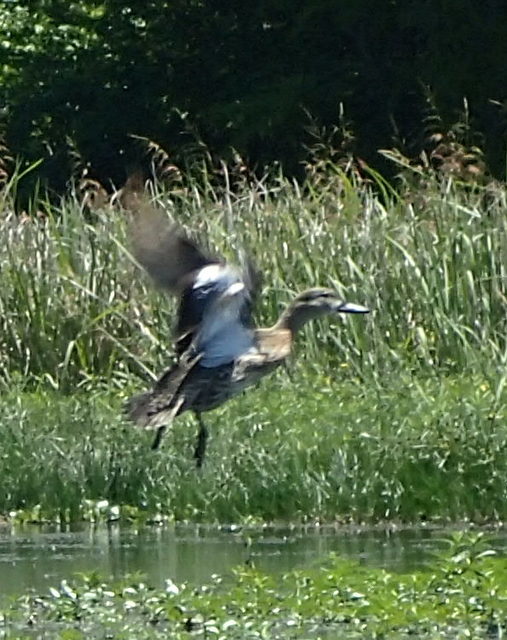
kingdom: Animalia
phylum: Chordata
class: Aves
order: Anseriformes
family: Anatidae
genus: Spatula
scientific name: Spatula discors
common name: Blue-winged teal
